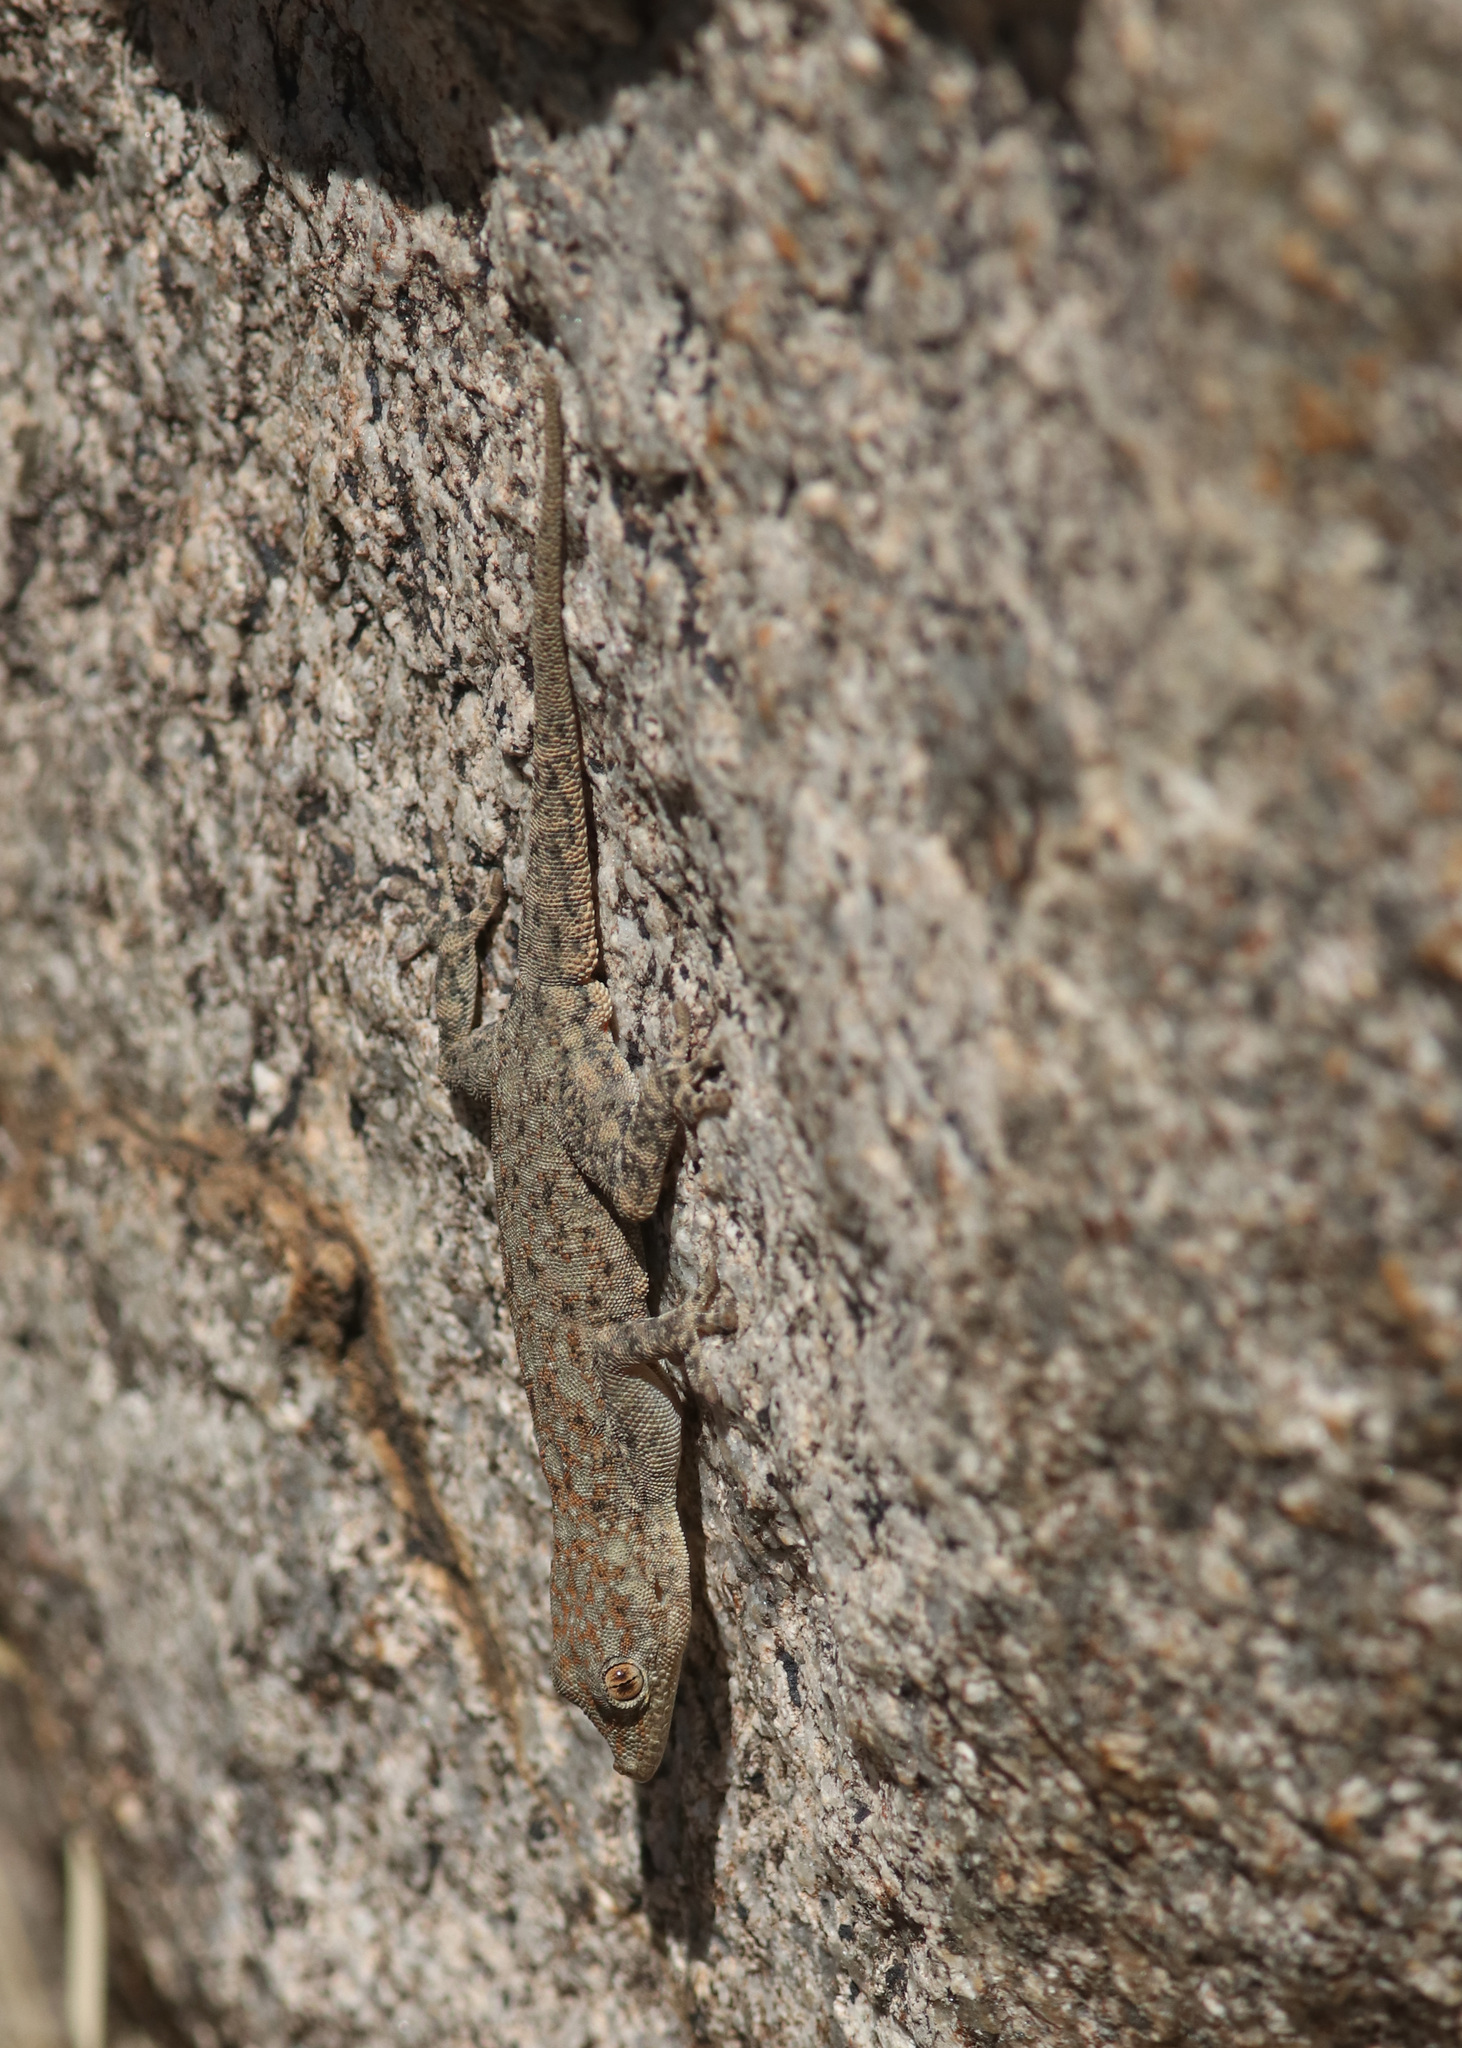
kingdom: Animalia
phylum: Chordata
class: Squamata
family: Gekkonidae
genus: Rhoptropus
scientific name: Rhoptropus barnardi
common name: Barnard’s namib day gecko
